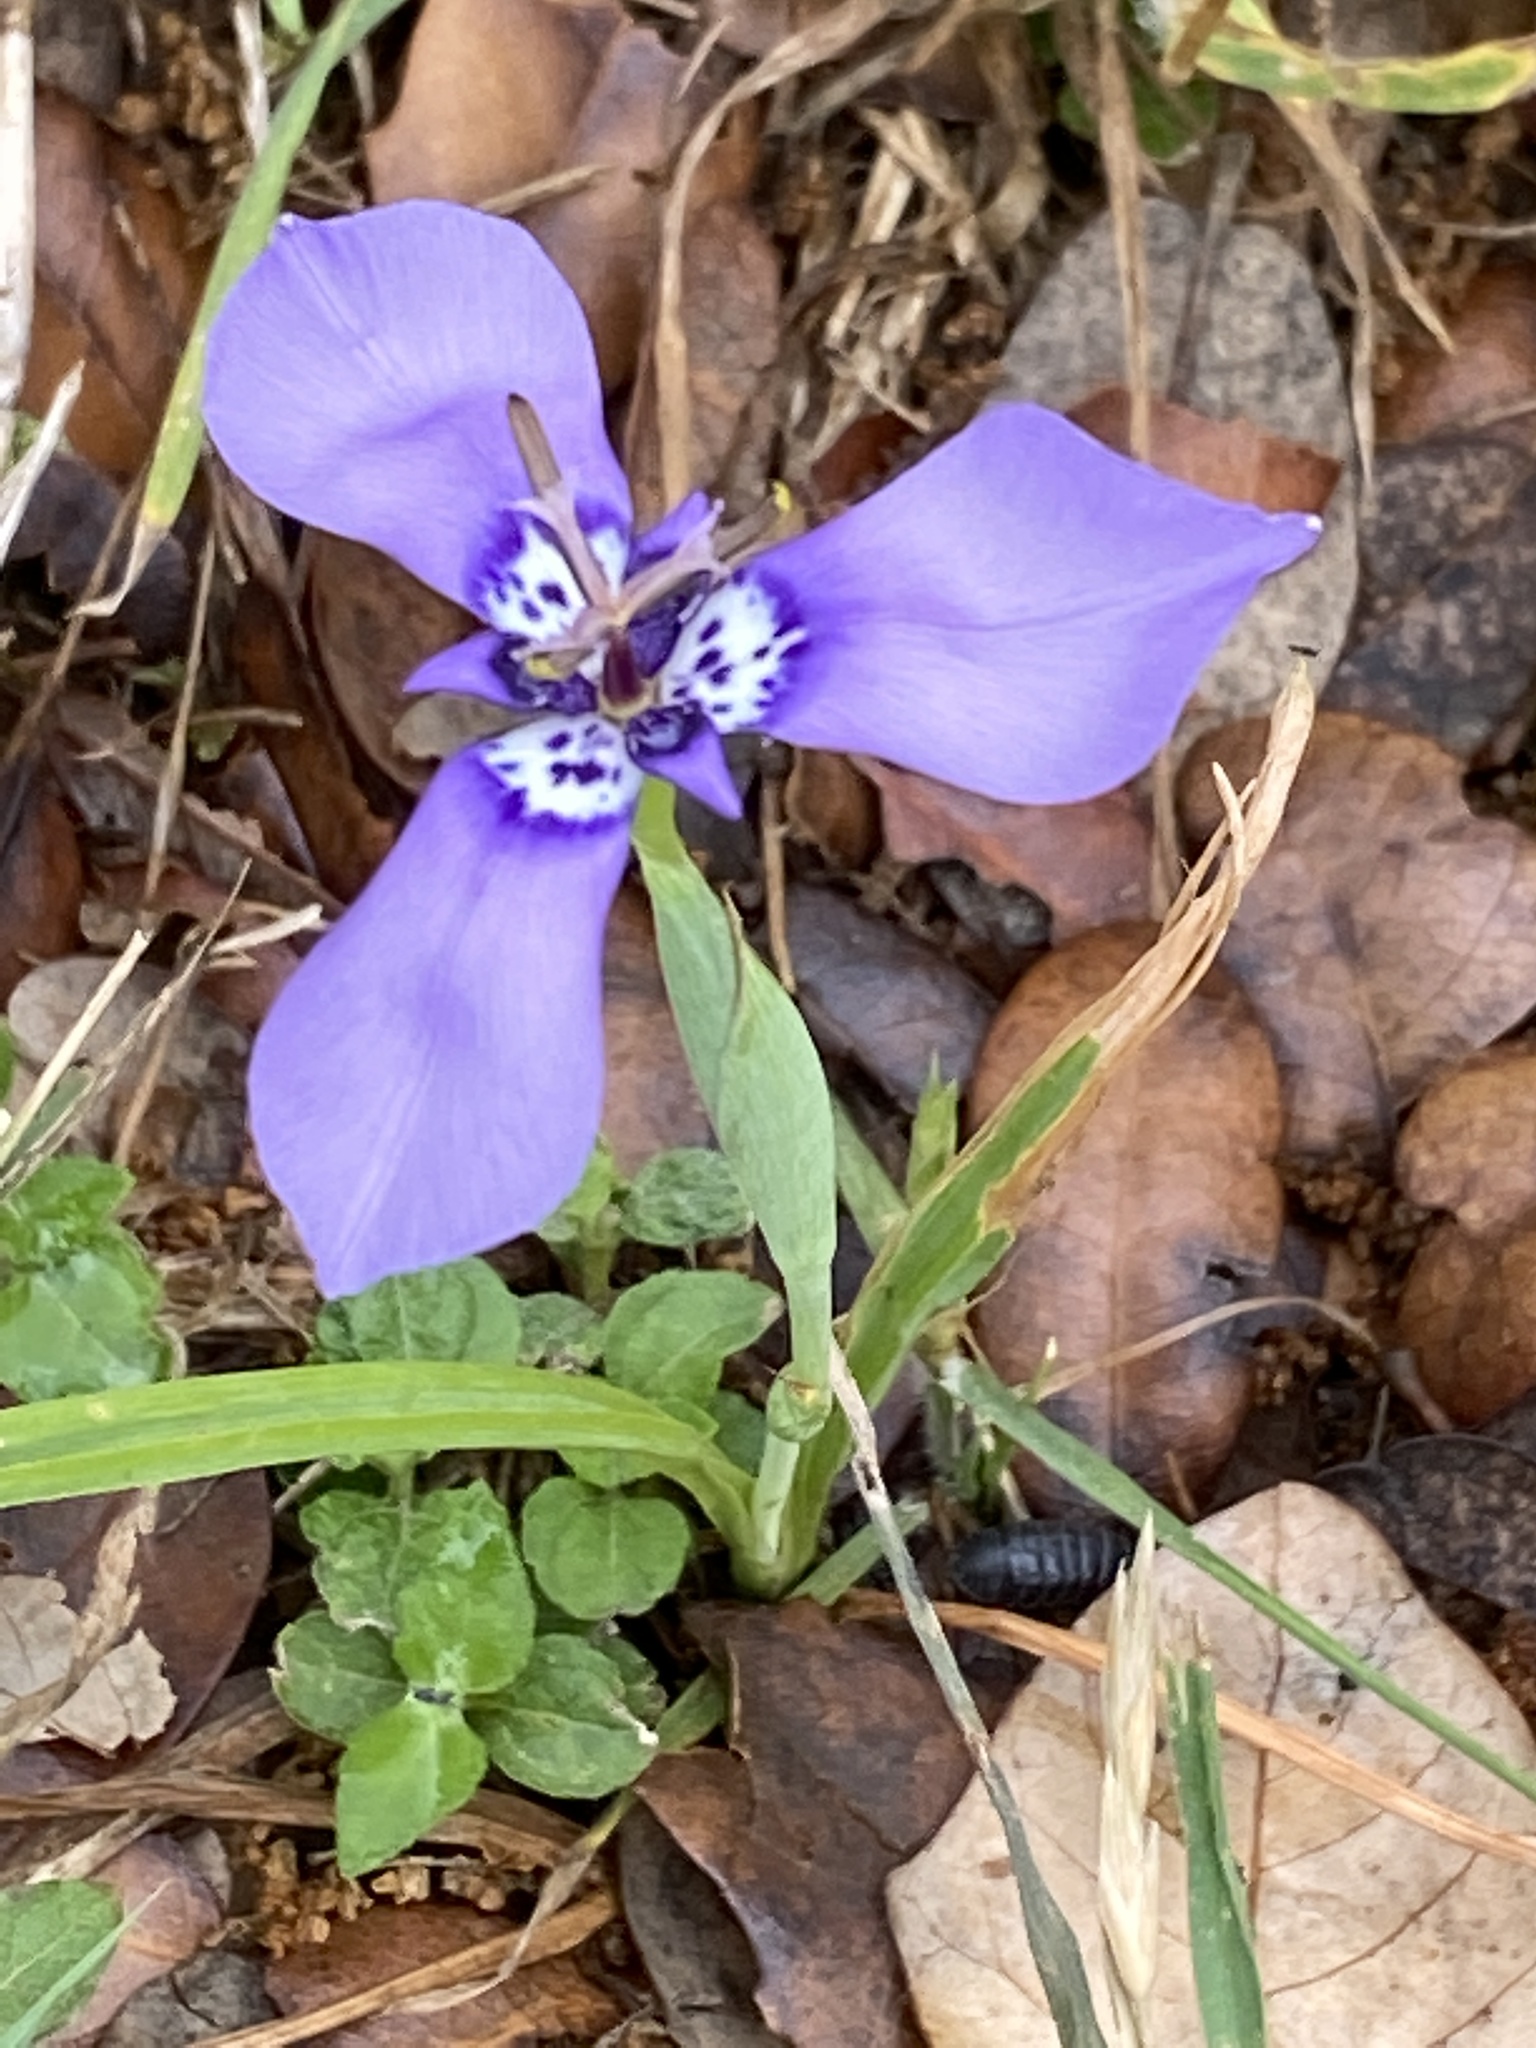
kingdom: Plantae
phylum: Tracheophyta
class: Liliopsida
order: Asparagales
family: Iridaceae
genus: Herbertia
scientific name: Herbertia lahue
